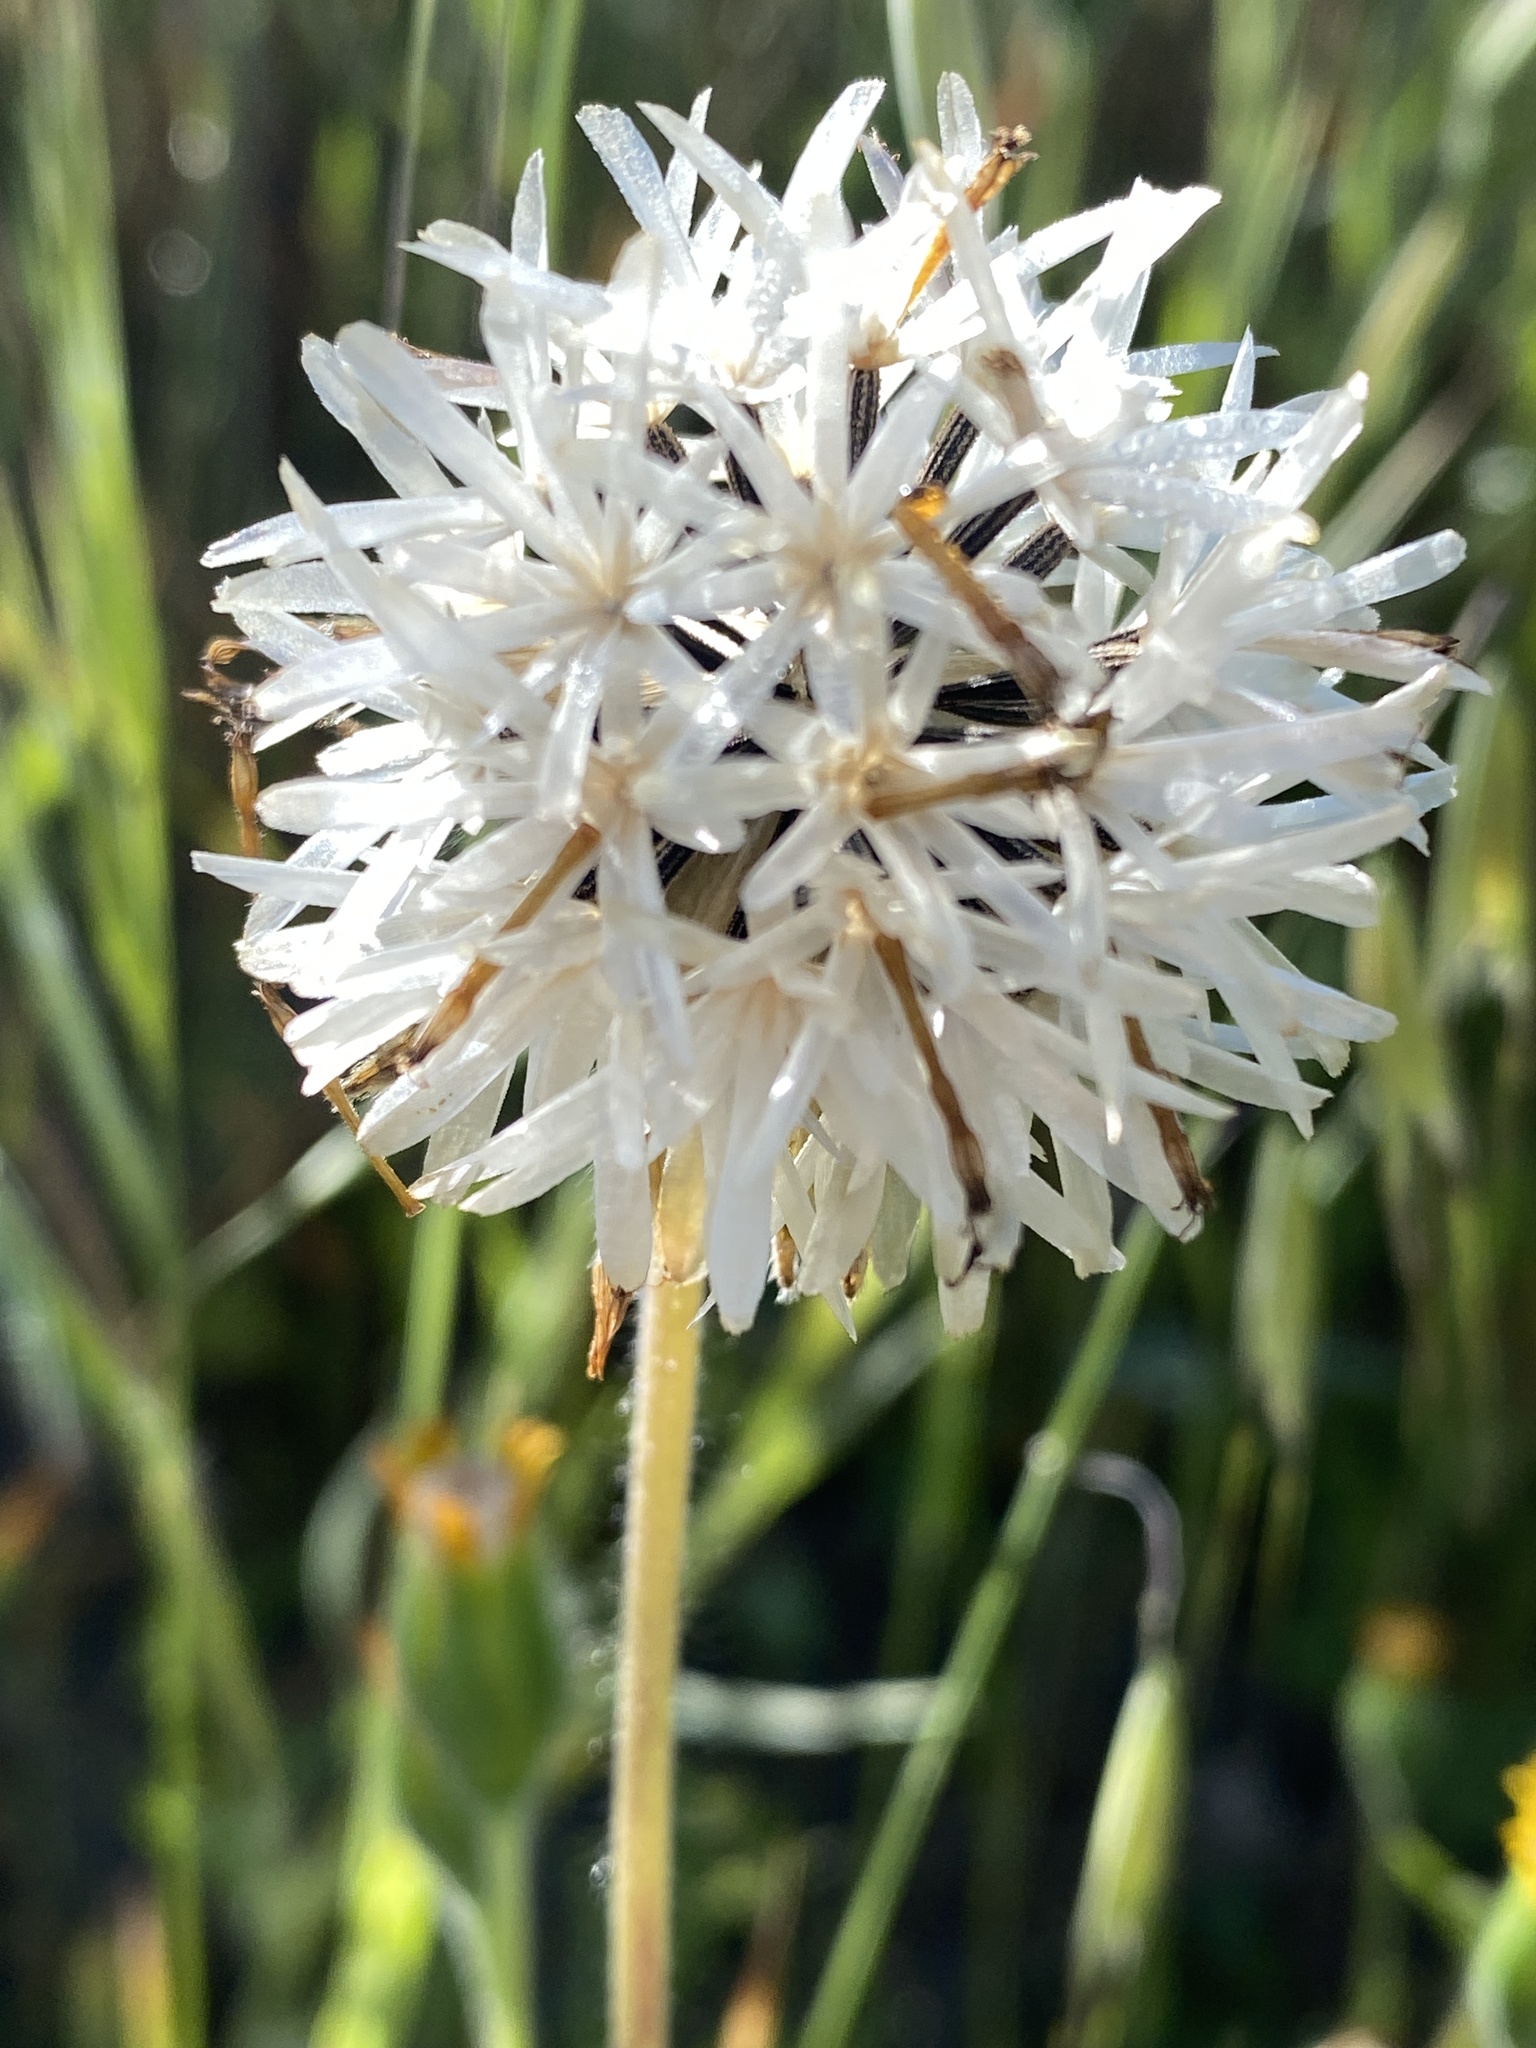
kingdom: Plantae
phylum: Tracheophyta
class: Magnoliopsida
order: Asterales
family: Asteraceae
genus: Achyrachaena
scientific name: Achyrachaena mollis
